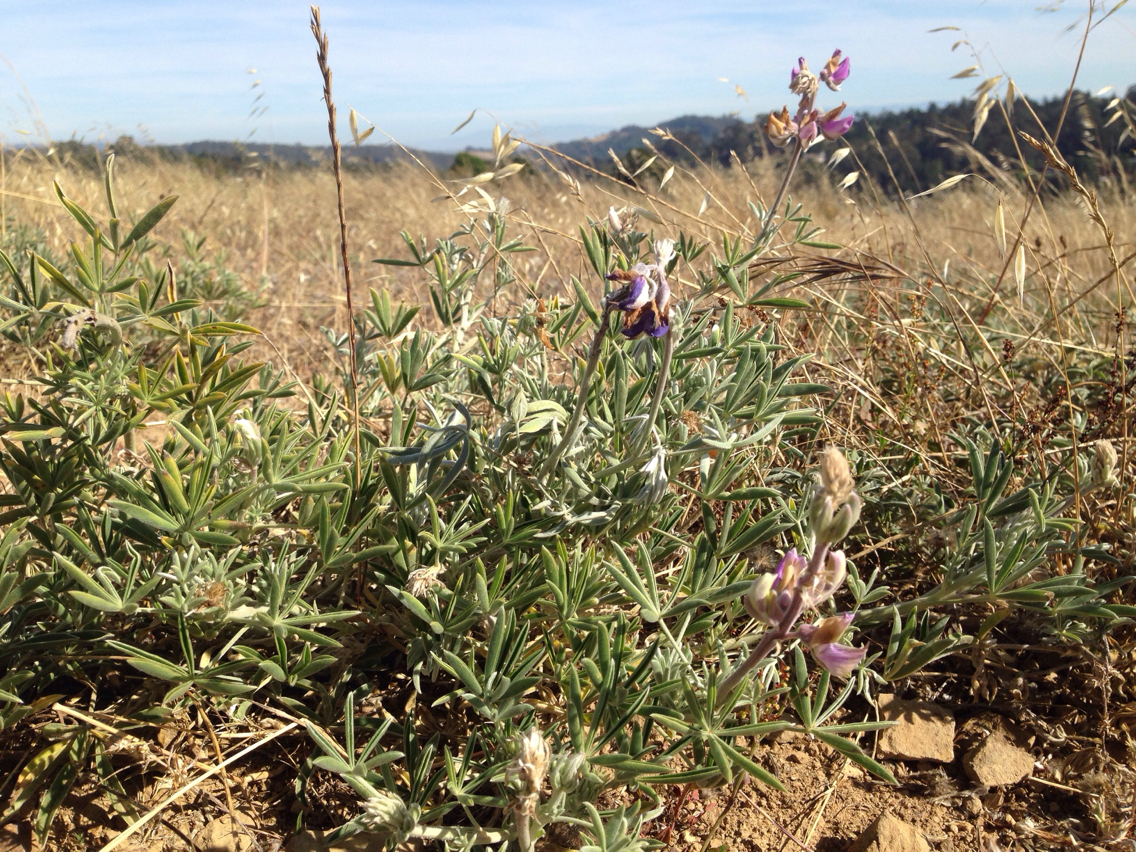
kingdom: Plantae
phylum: Tracheophyta
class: Magnoliopsida
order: Fabales
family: Fabaceae
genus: Lupinus
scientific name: Lupinus formosus
